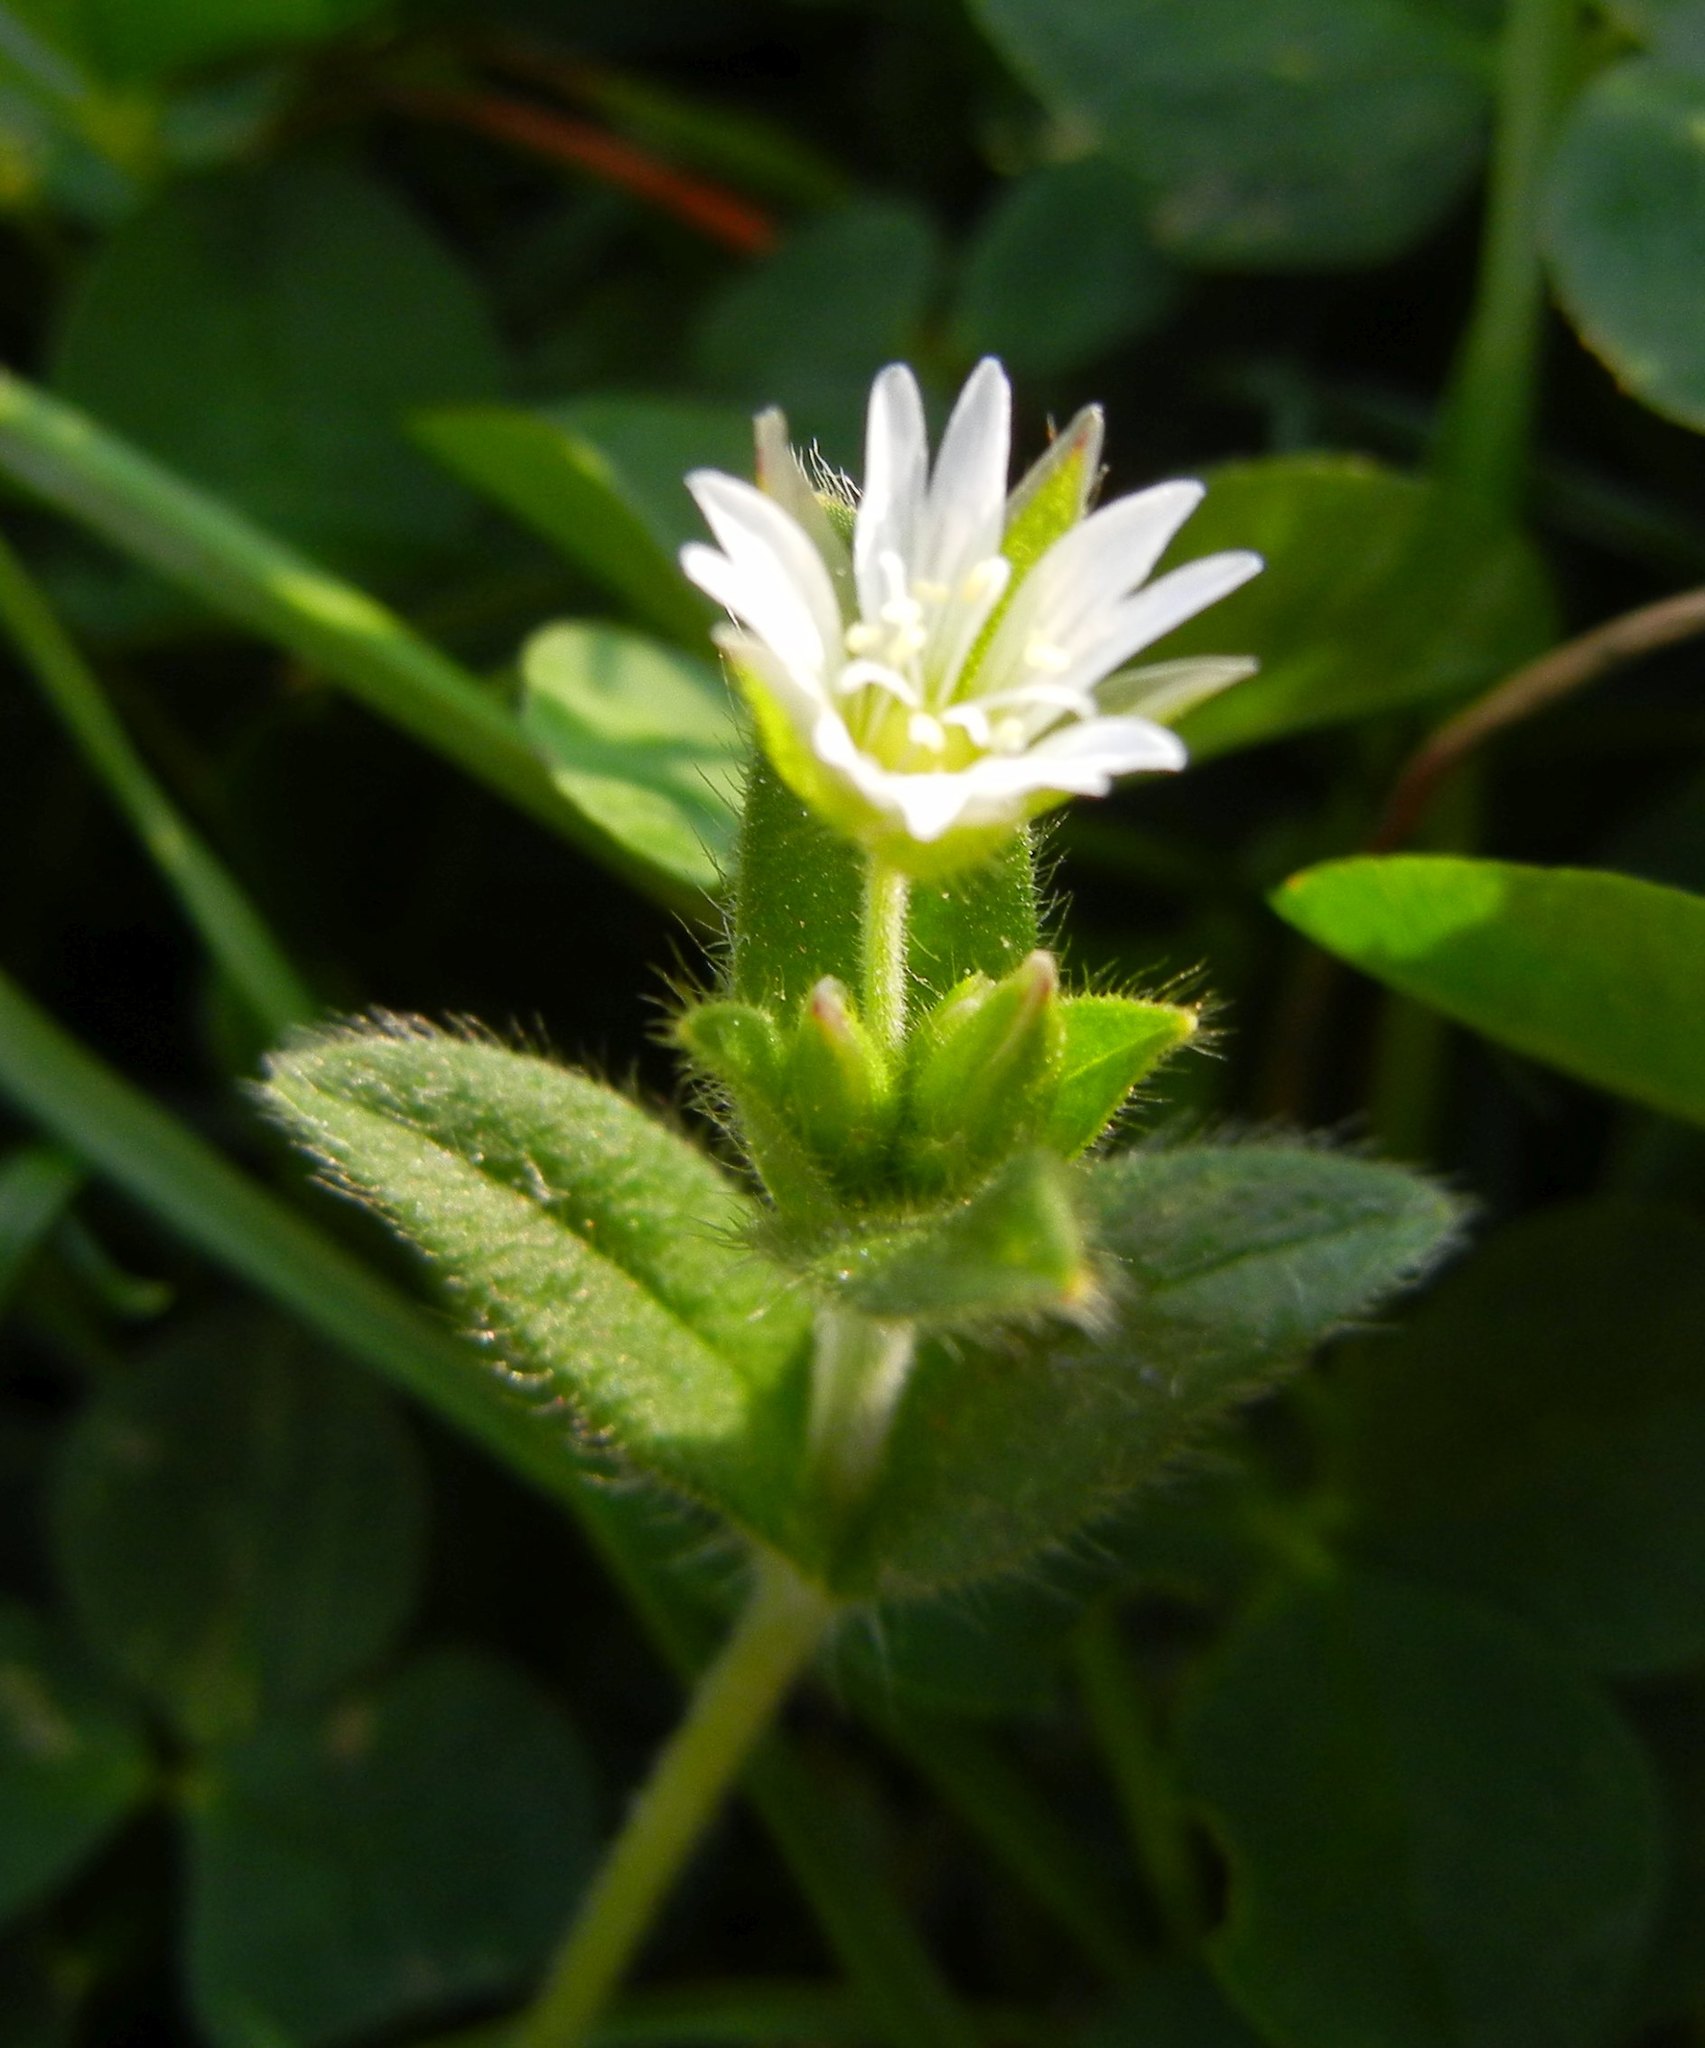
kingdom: Plantae
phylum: Tracheophyta
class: Magnoliopsida
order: Caryophyllales
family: Caryophyllaceae
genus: Cerastium
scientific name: Cerastium fontanum
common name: Common mouse-ear
